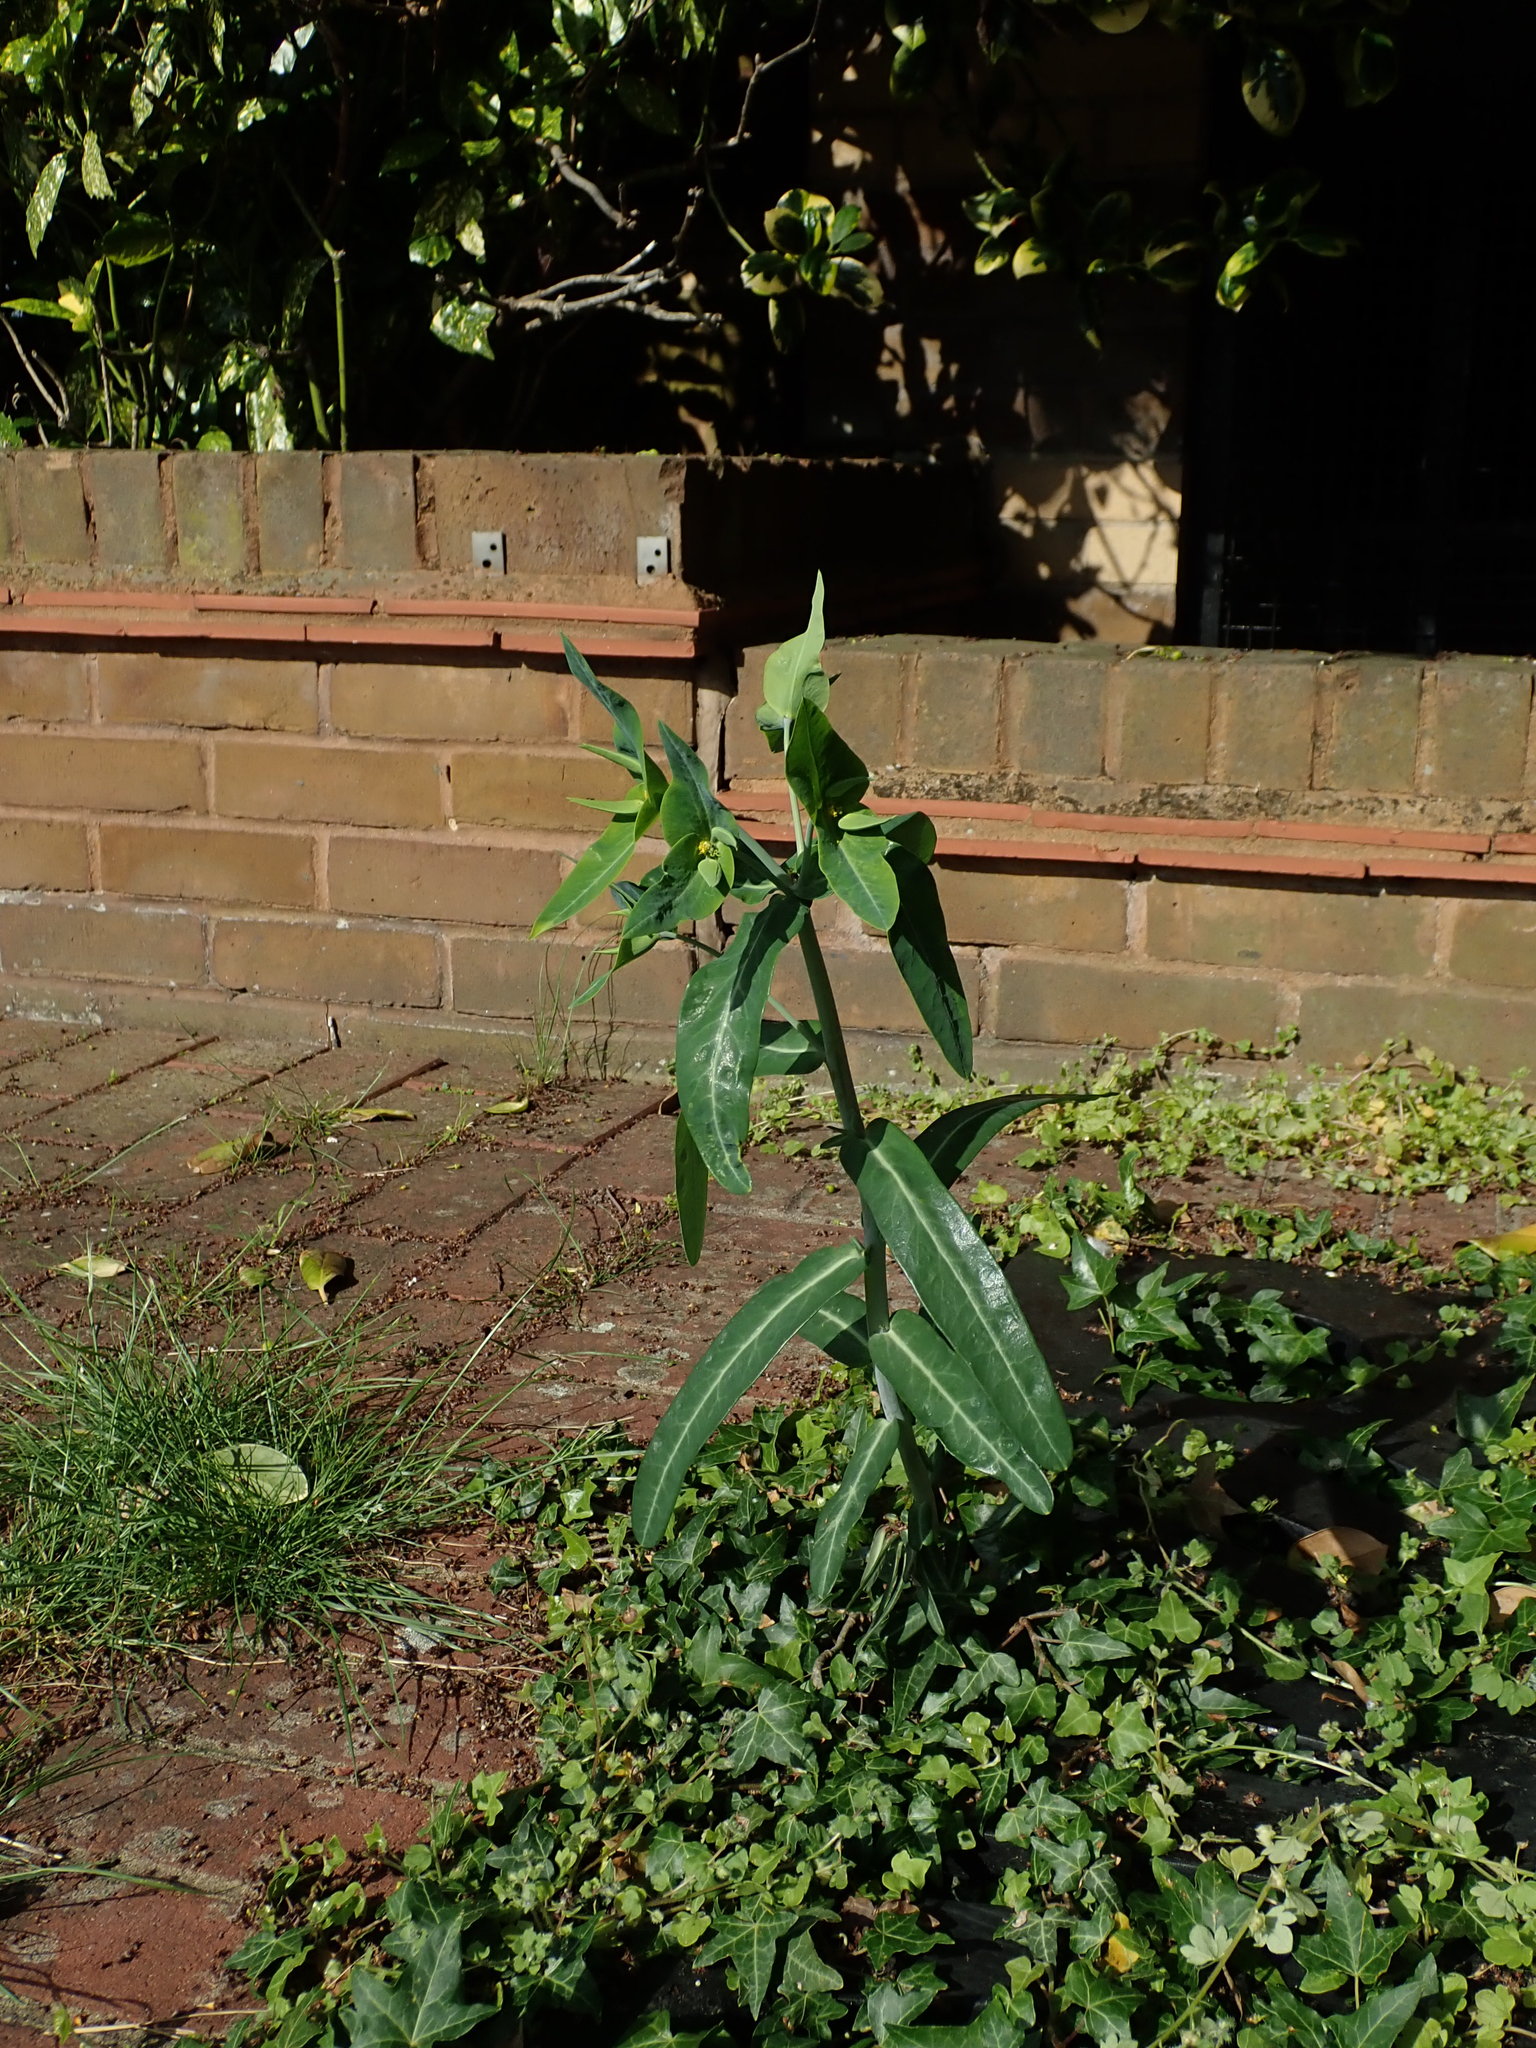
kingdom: Plantae
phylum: Tracheophyta
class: Magnoliopsida
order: Malpighiales
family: Euphorbiaceae
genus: Euphorbia
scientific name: Euphorbia lathyris
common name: Caper spurge
